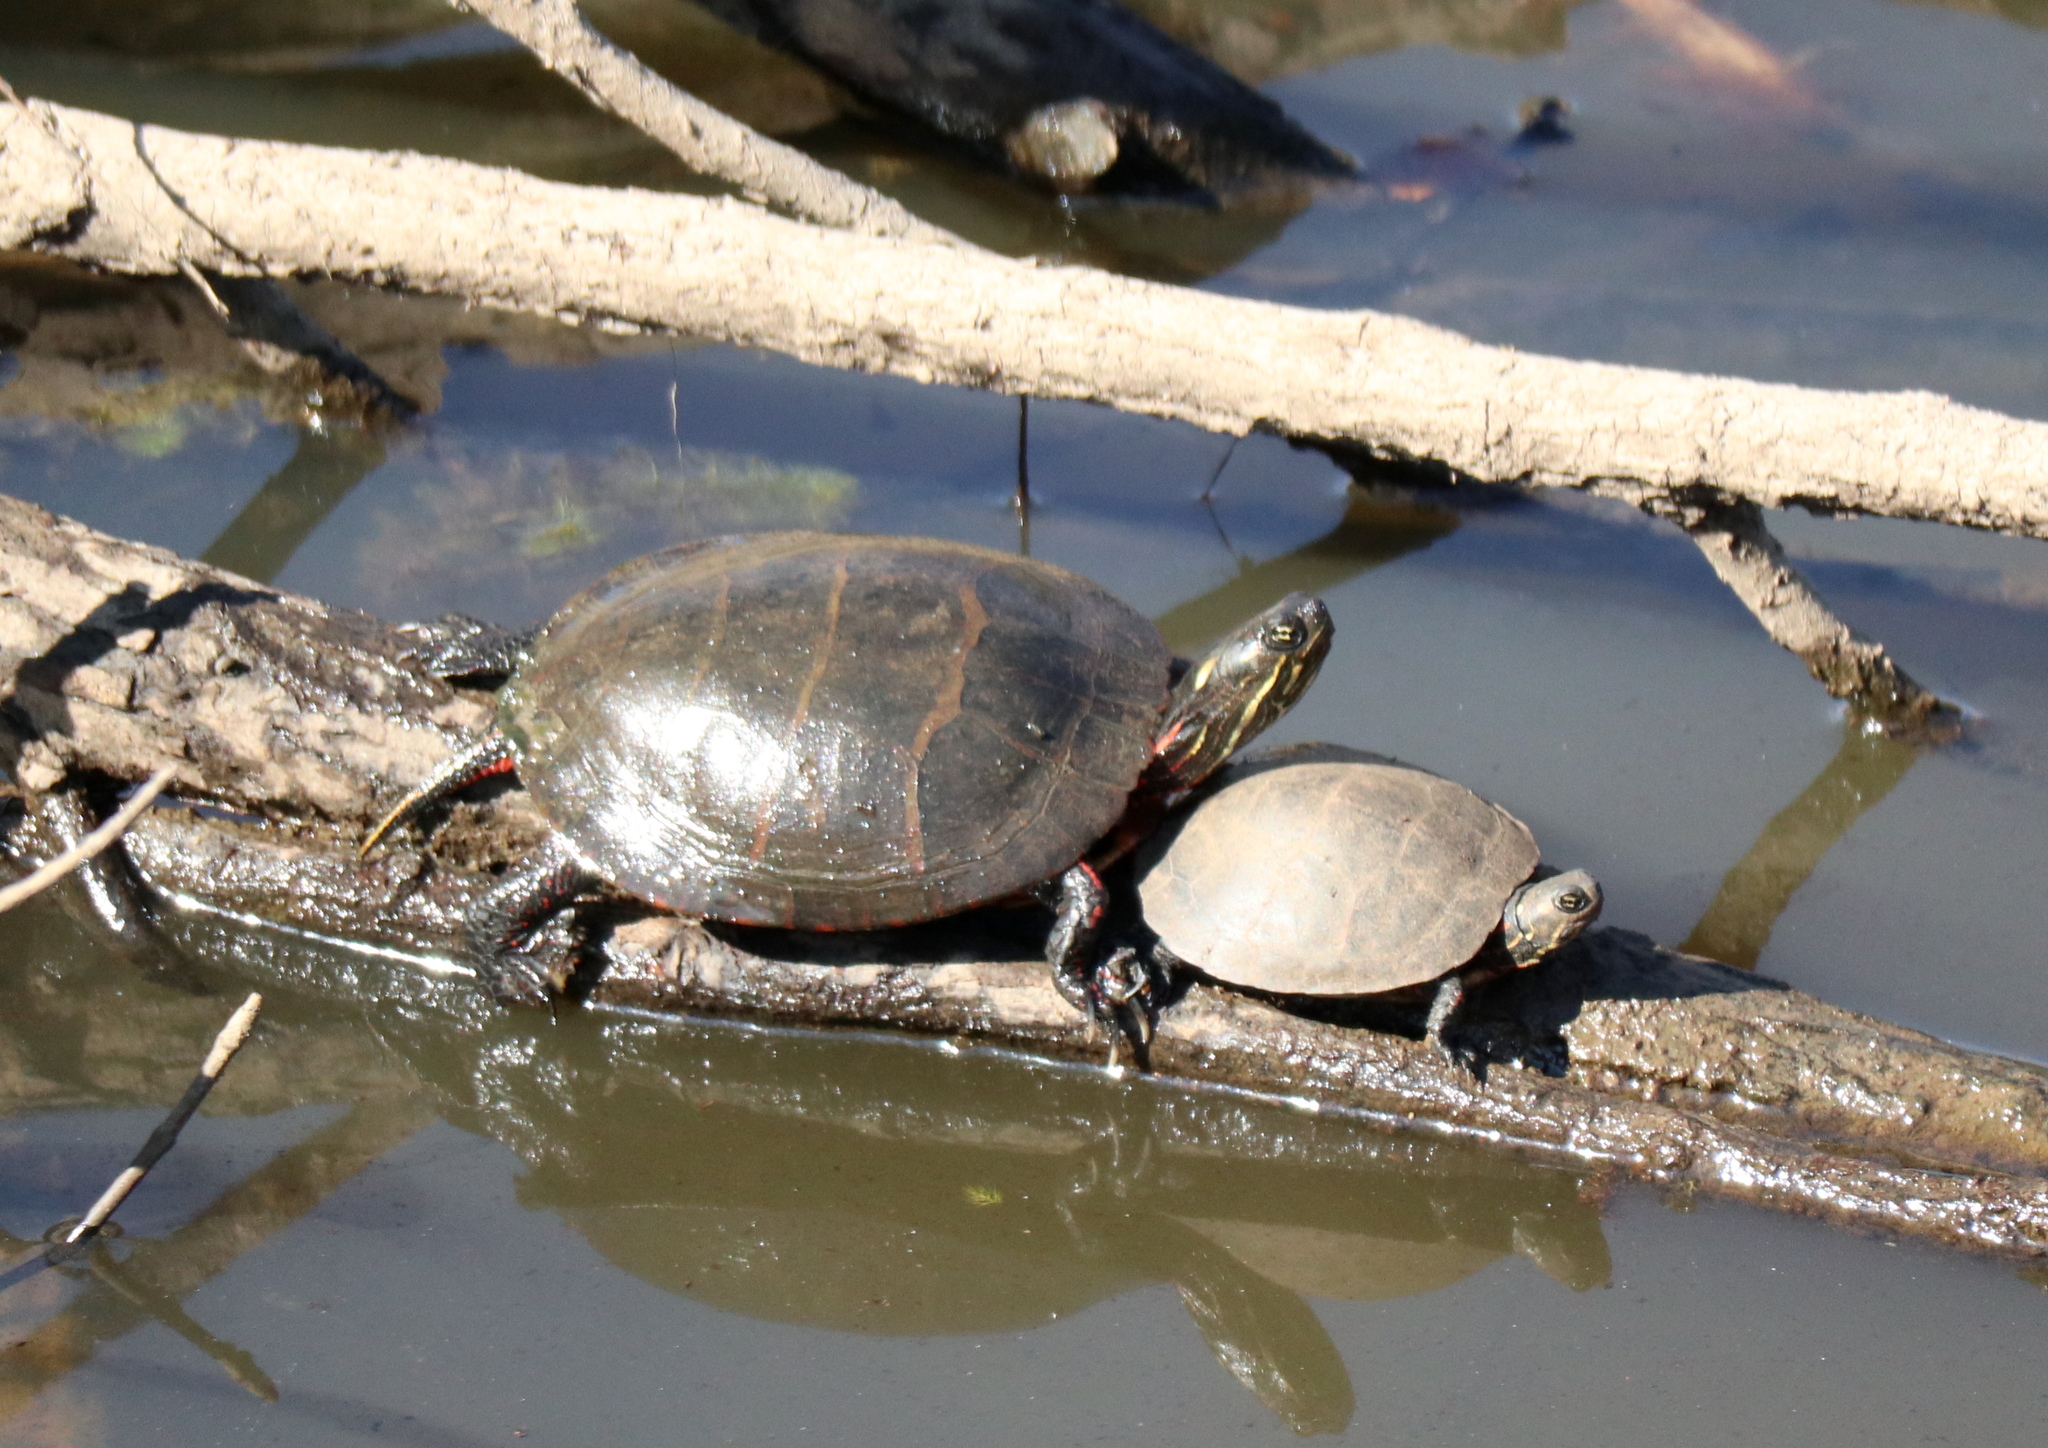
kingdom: Animalia
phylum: Chordata
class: Testudines
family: Emydidae
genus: Chrysemys
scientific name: Chrysemys picta
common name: Painted turtle
